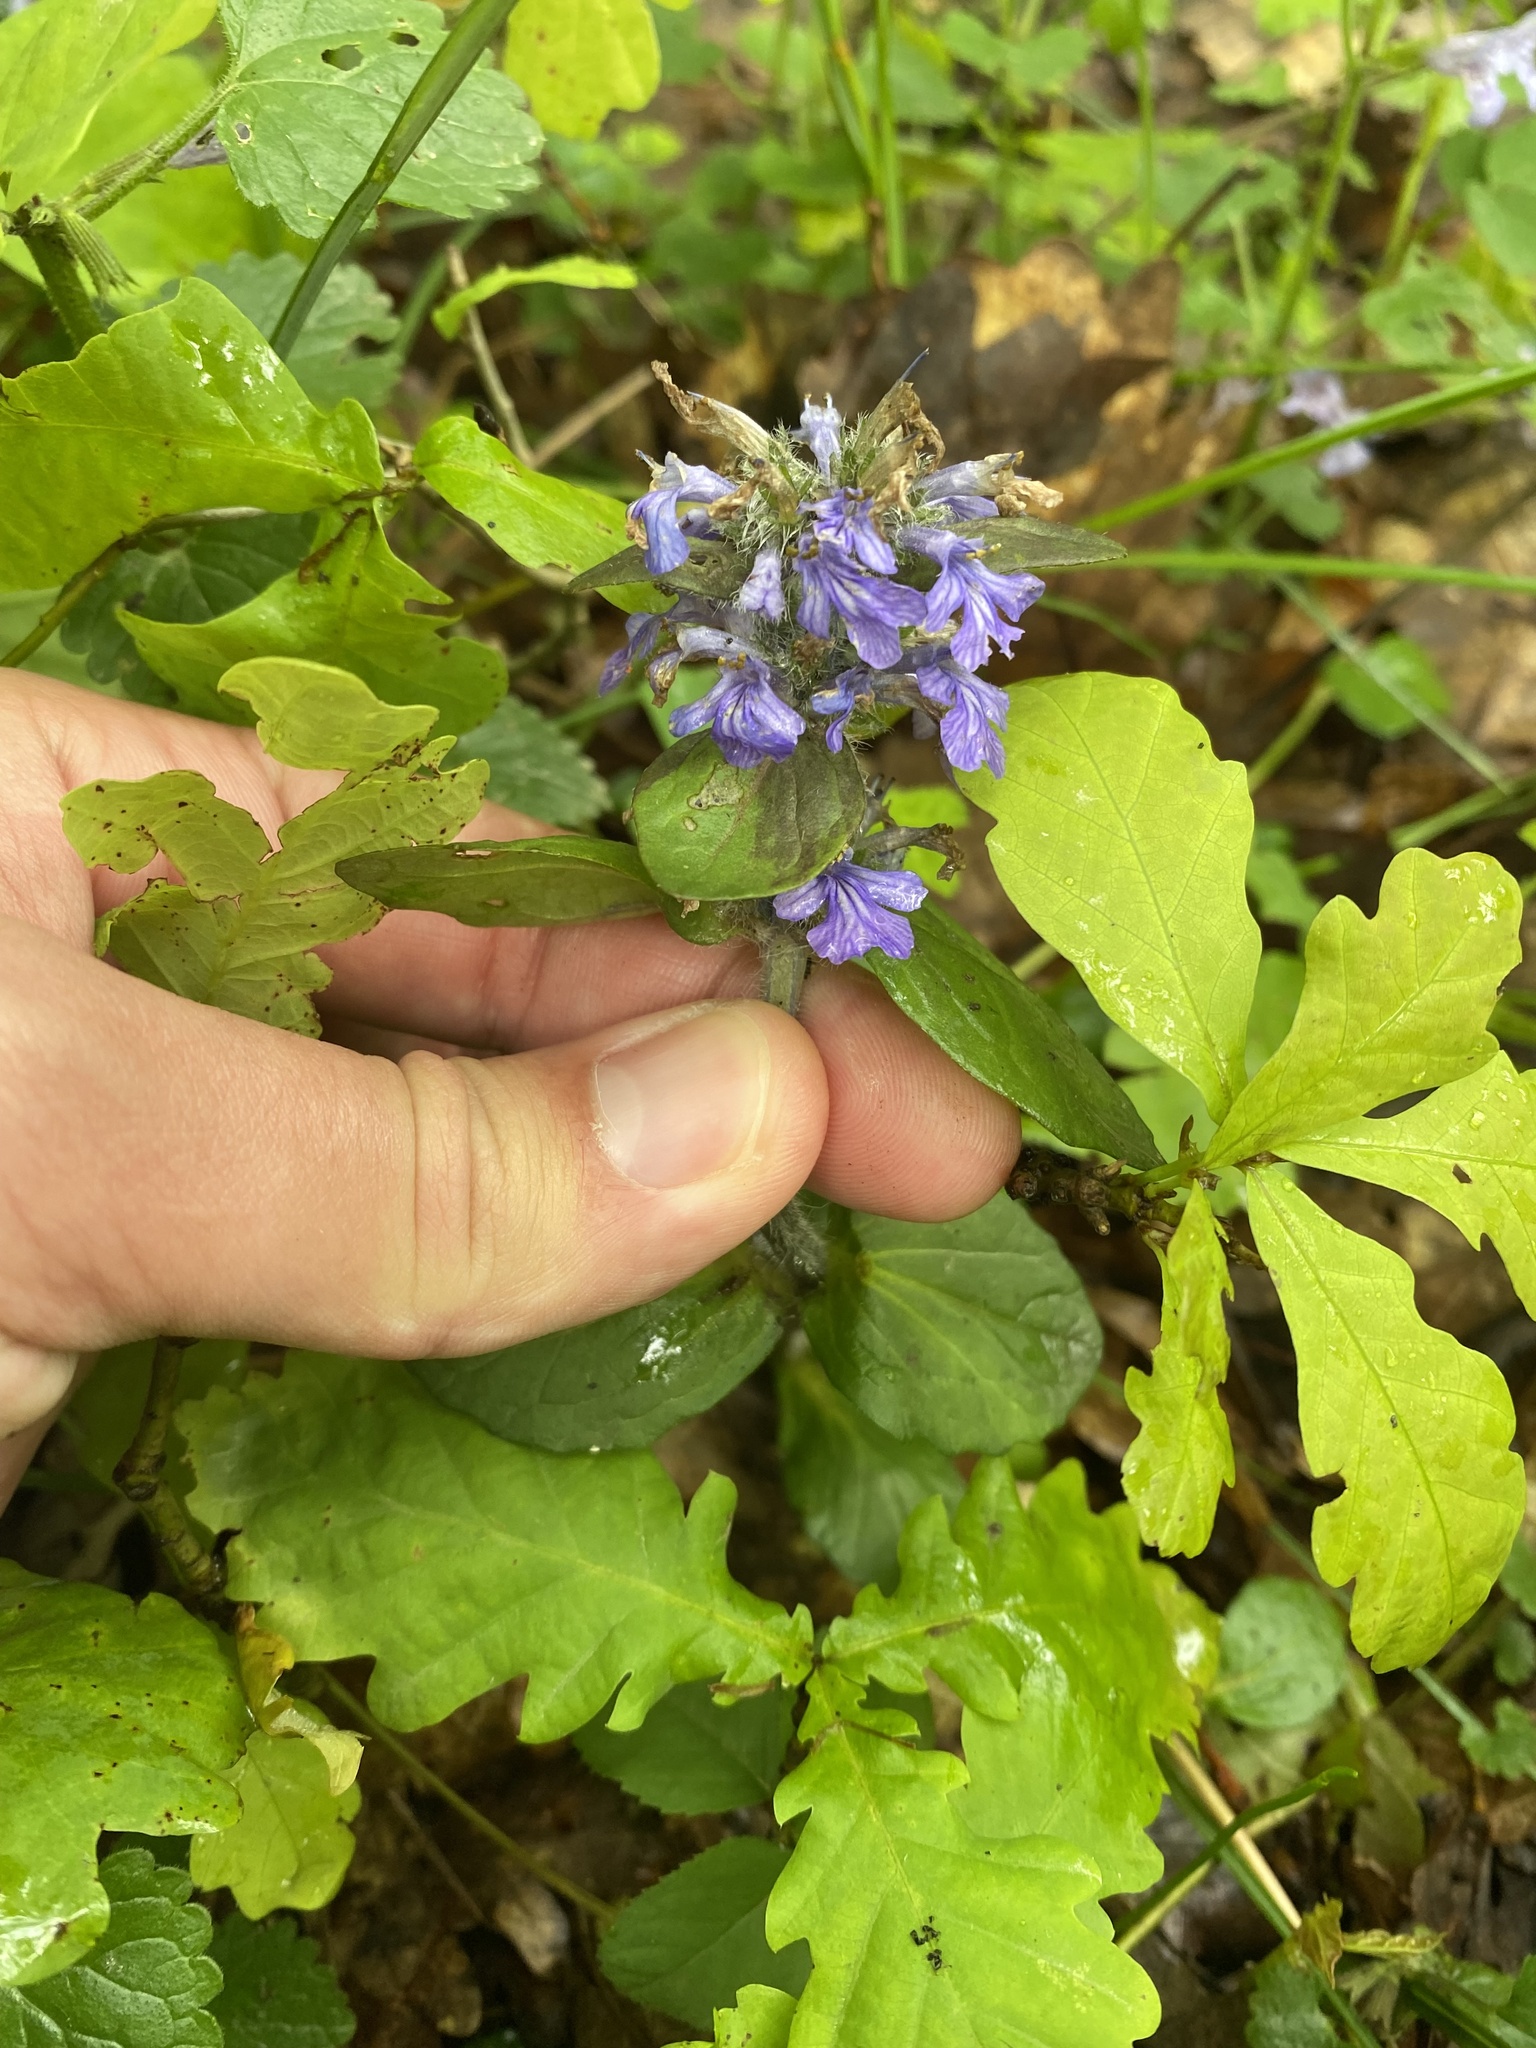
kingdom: Plantae
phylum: Tracheophyta
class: Magnoliopsida
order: Lamiales
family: Lamiaceae
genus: Ajuga
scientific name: Ajuga reptans
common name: Bugle
